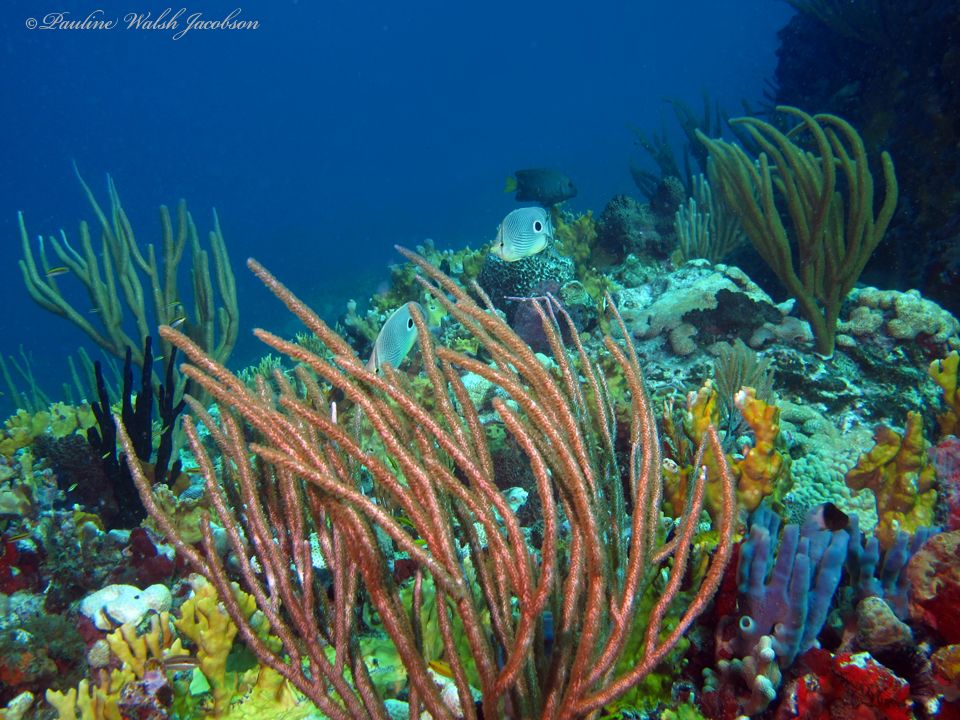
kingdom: Animalia
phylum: Chordata
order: Perciformes
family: Chaetodontidae
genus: Chaetodon
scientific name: Chaetodon capistratus
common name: Kete
